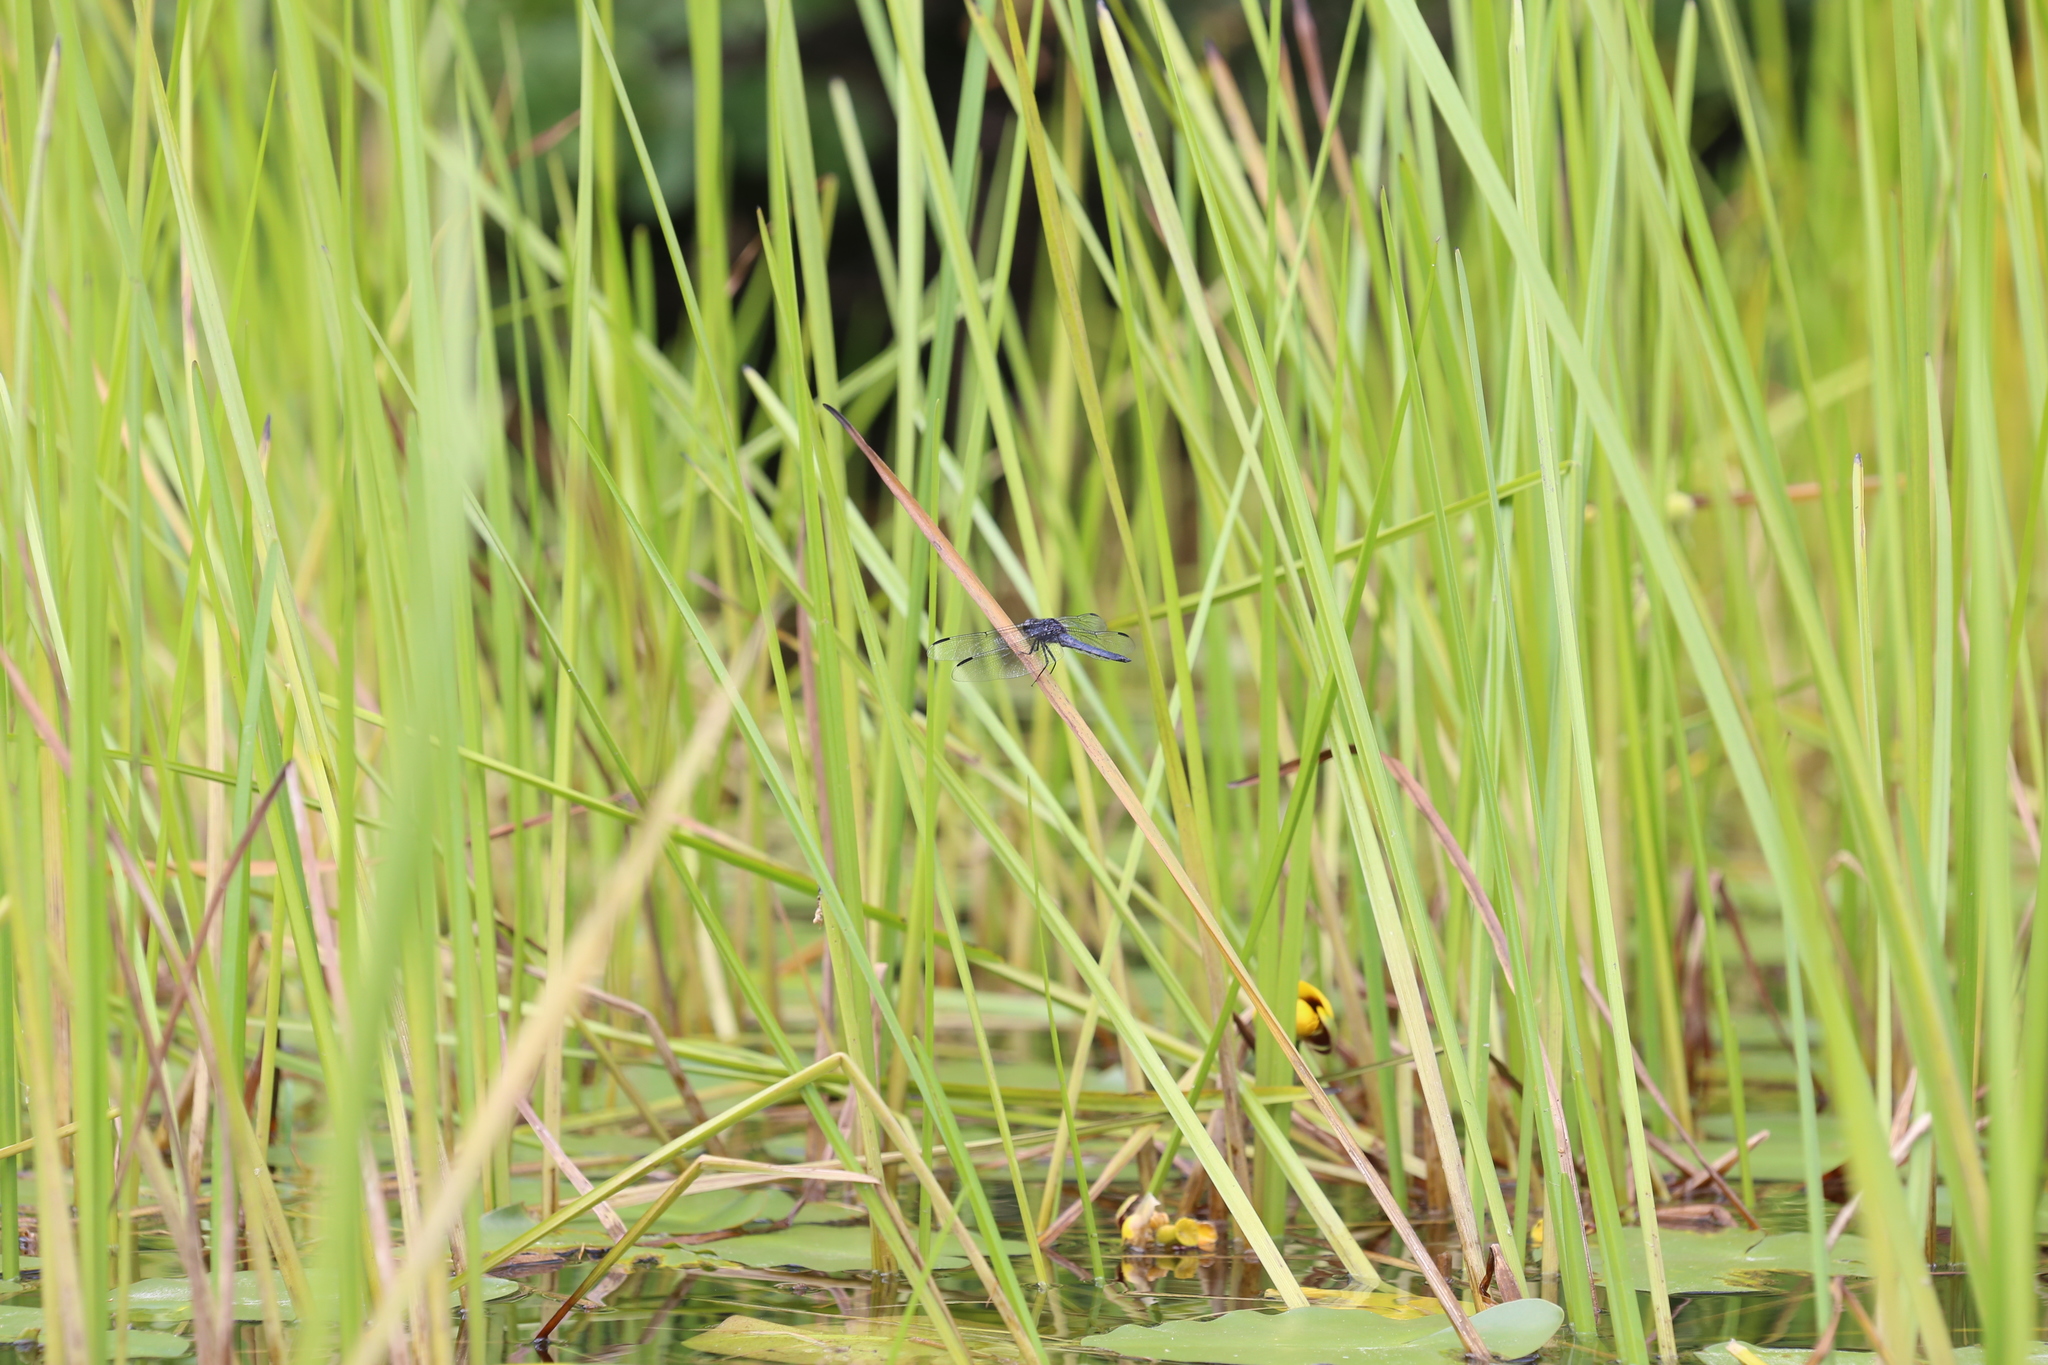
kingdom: Animalia
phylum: Arthropoda
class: Insecta
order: Odonata
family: Libellulidae
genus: Libellula
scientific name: Libellula incesta
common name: Slaty skimmer
